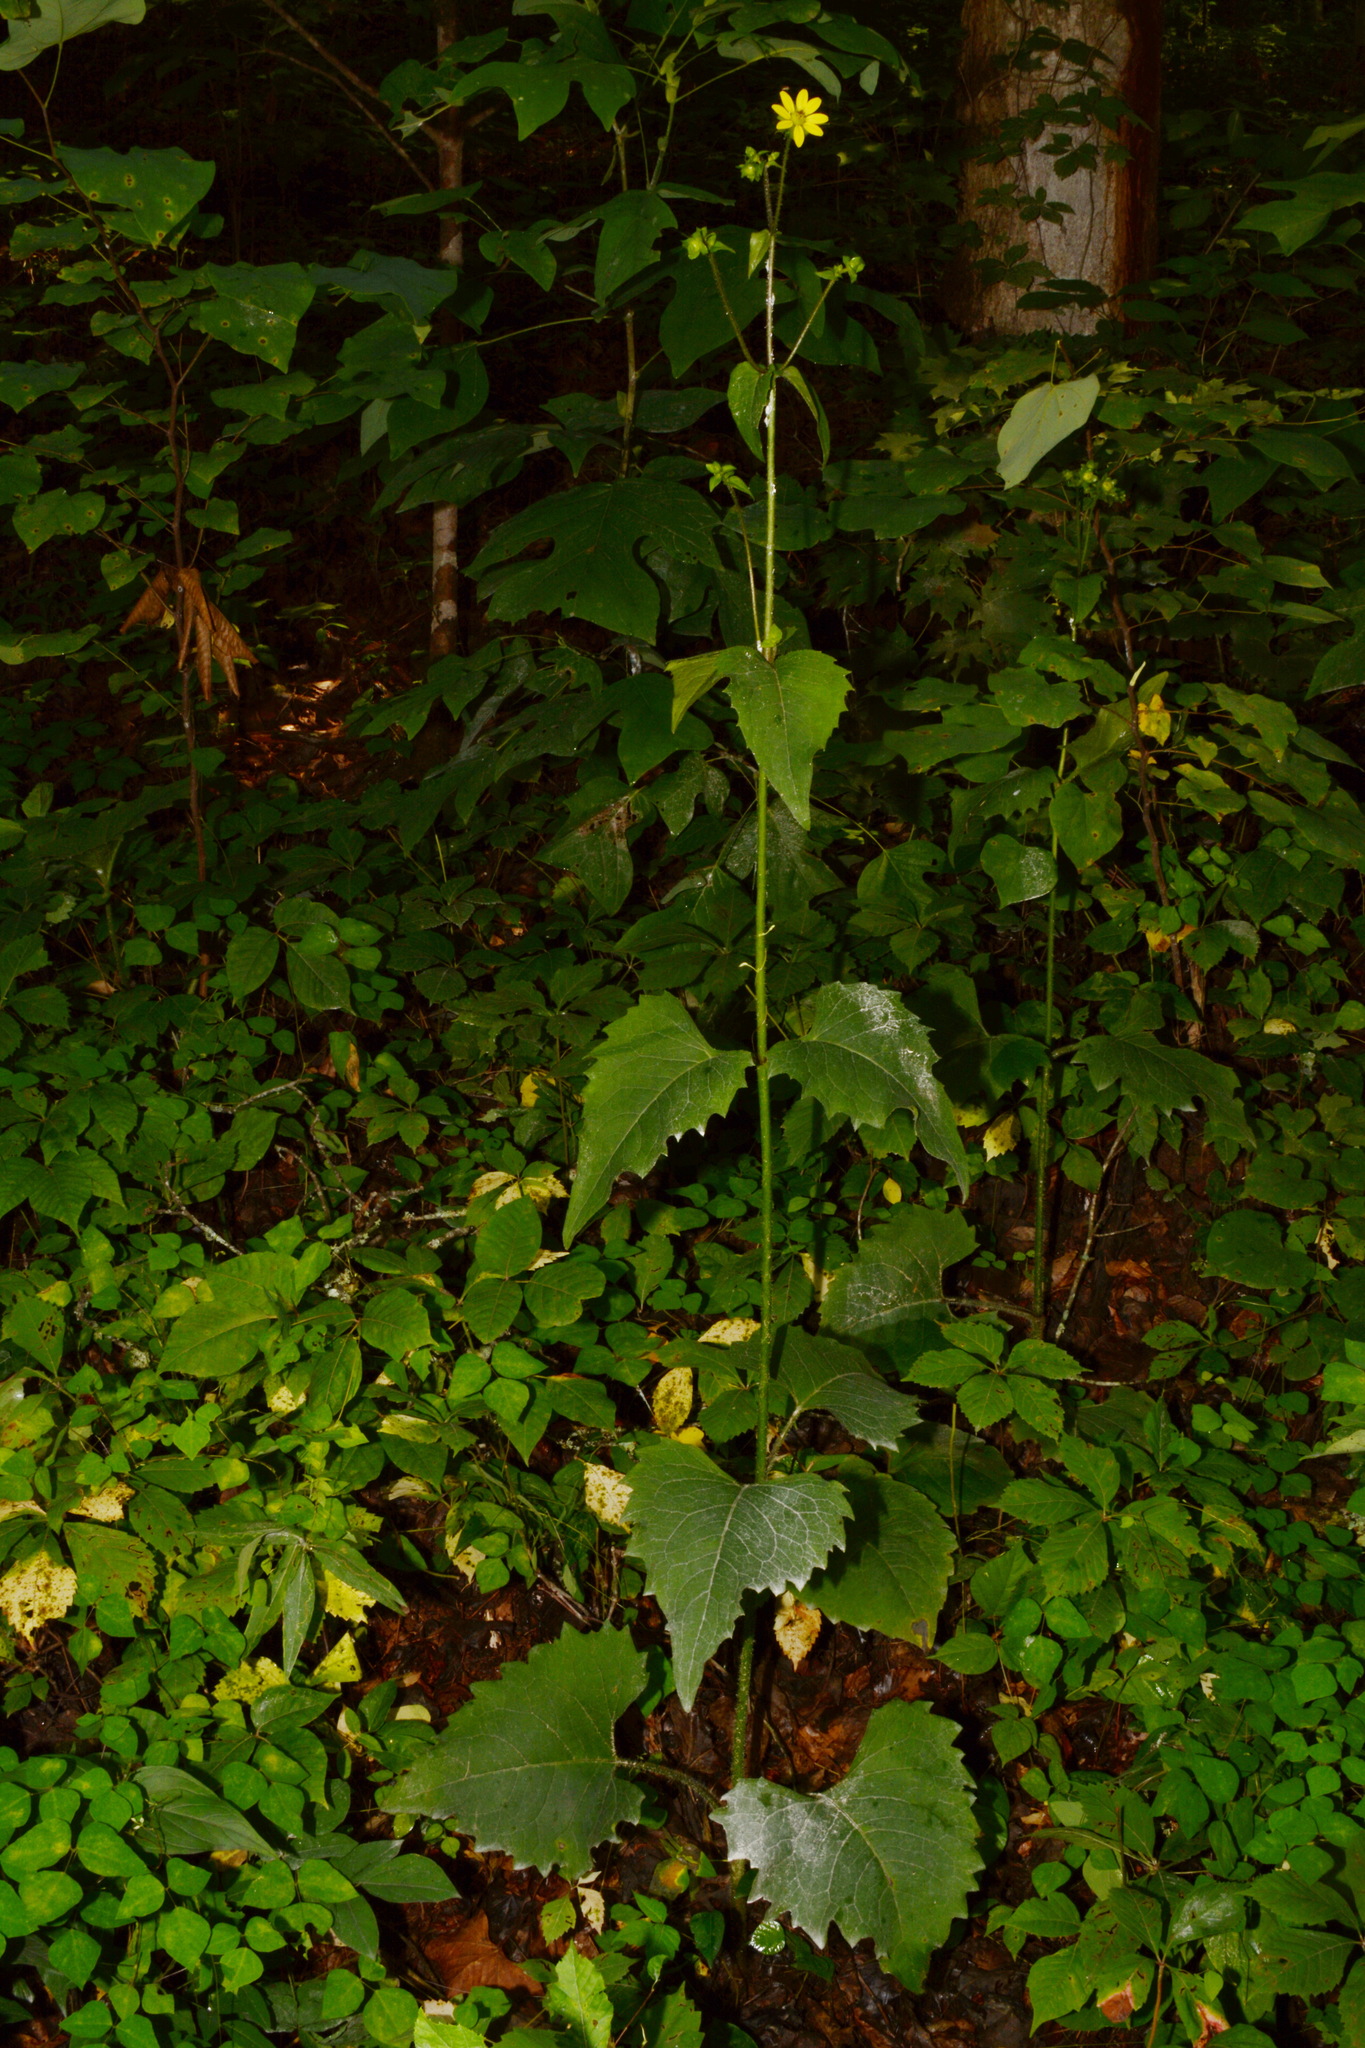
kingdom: Plantae
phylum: Tracheophyta
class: Magnoliopsida
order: Asterales
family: Asteraceae
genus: Silphium
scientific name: Silphium wasiotense
